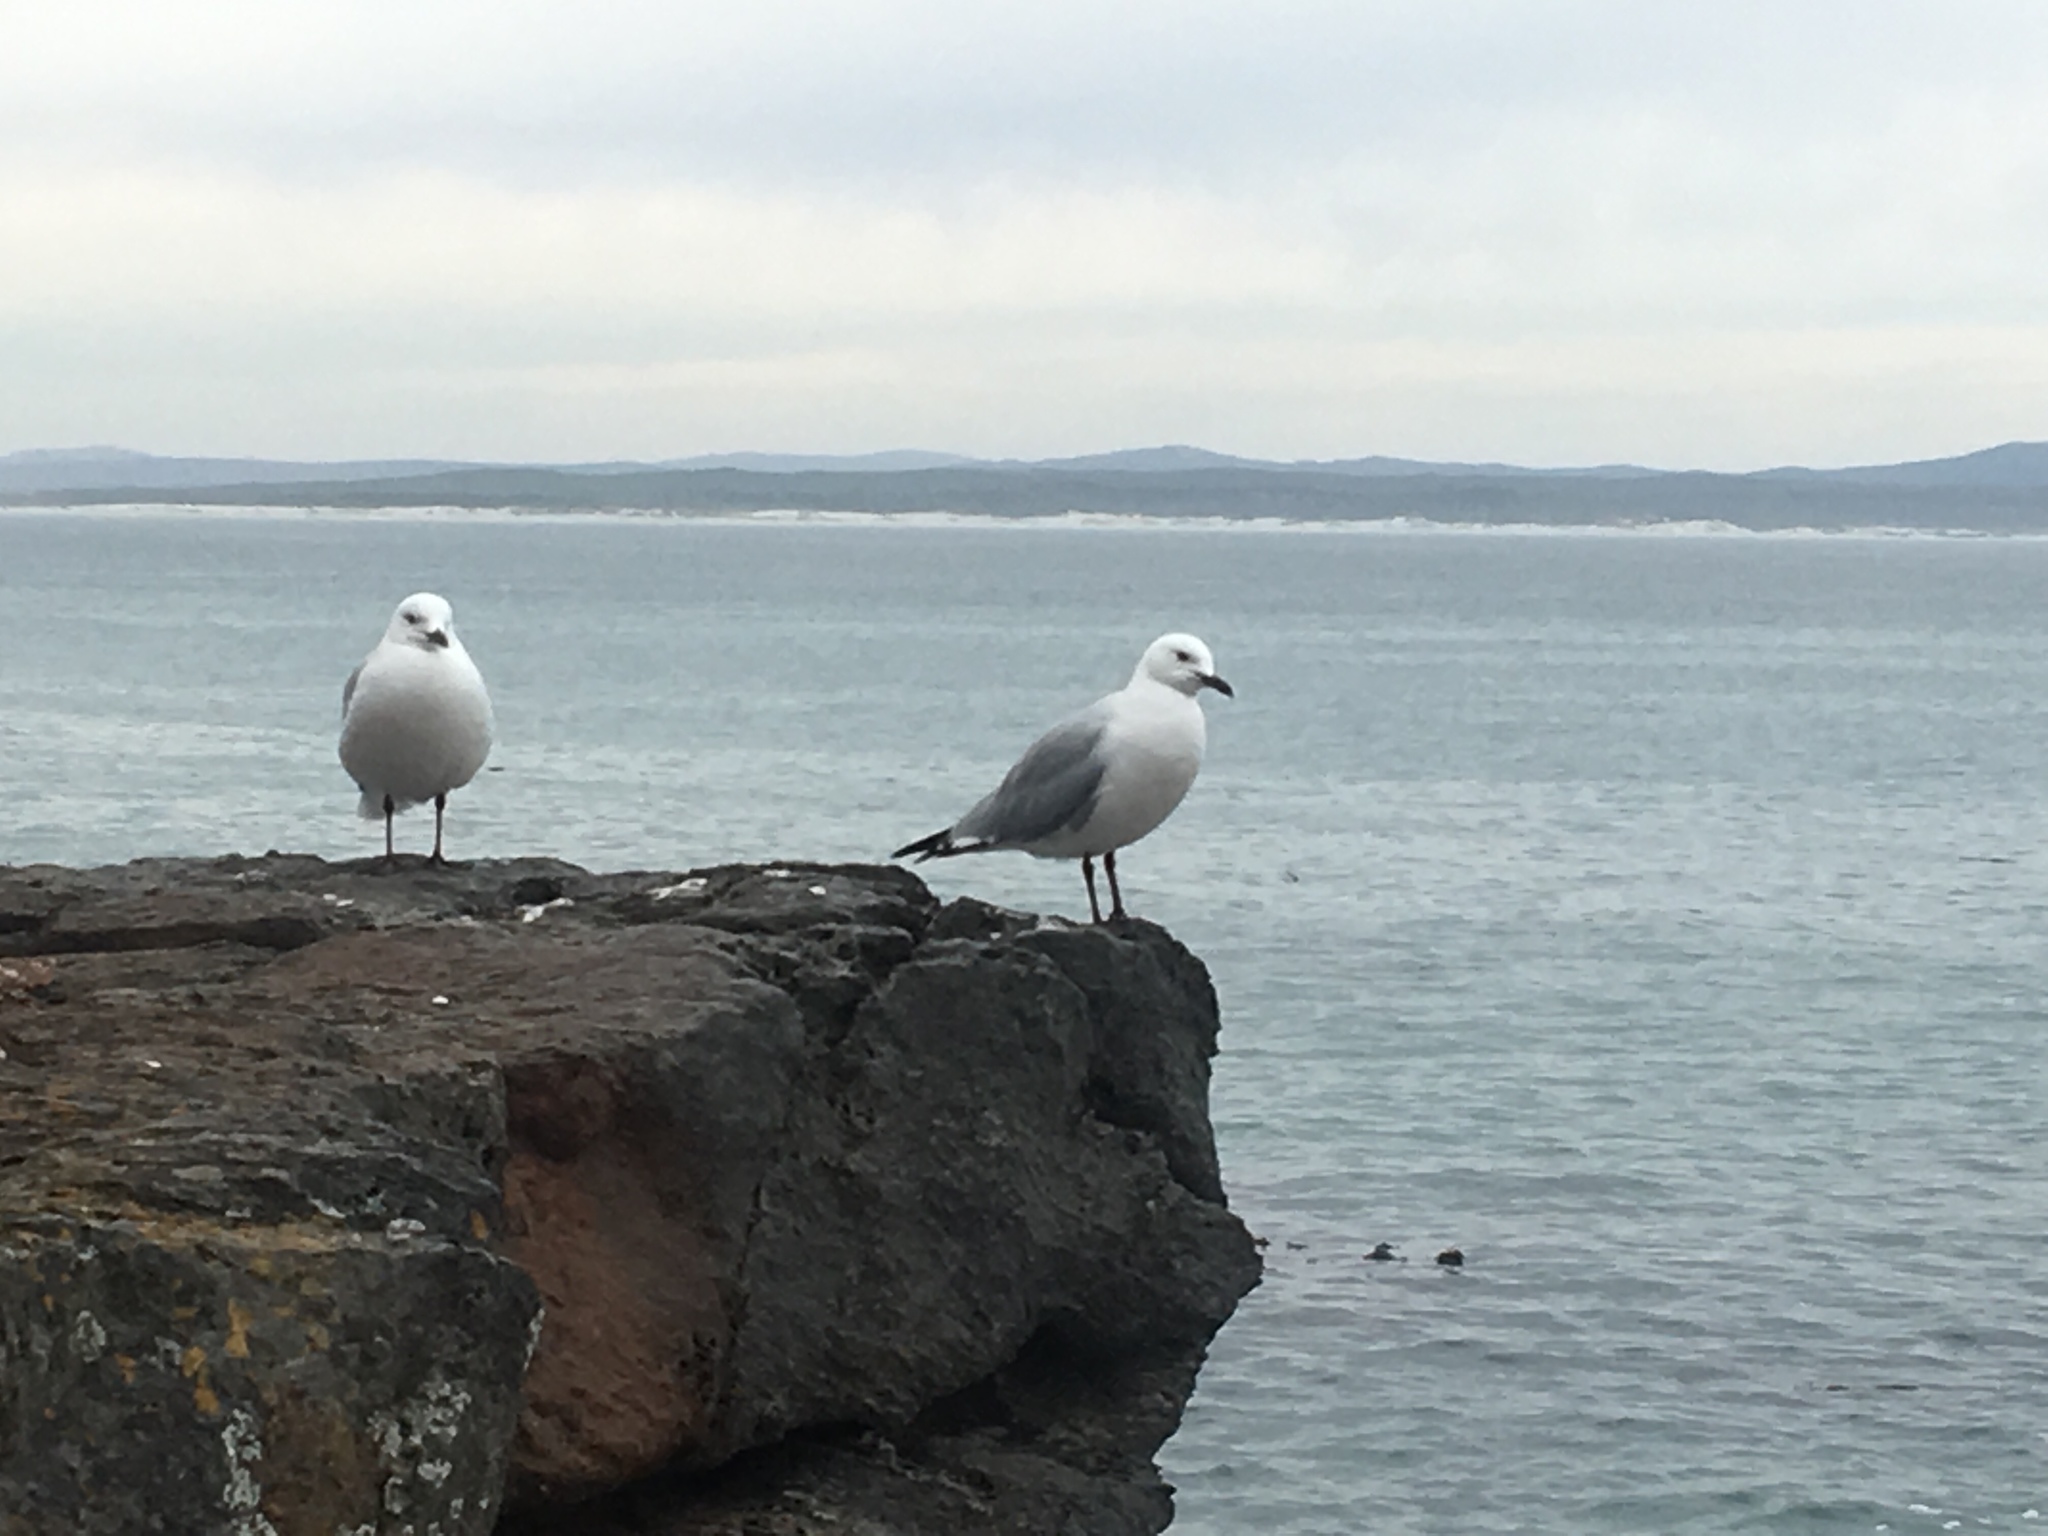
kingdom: Animalia
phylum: Chordata
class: Aves
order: Charadriiformes
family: Laridae
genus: Chroicocephalus
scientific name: Chroicocephalus hartlaubii
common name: Hartlaub's gull
